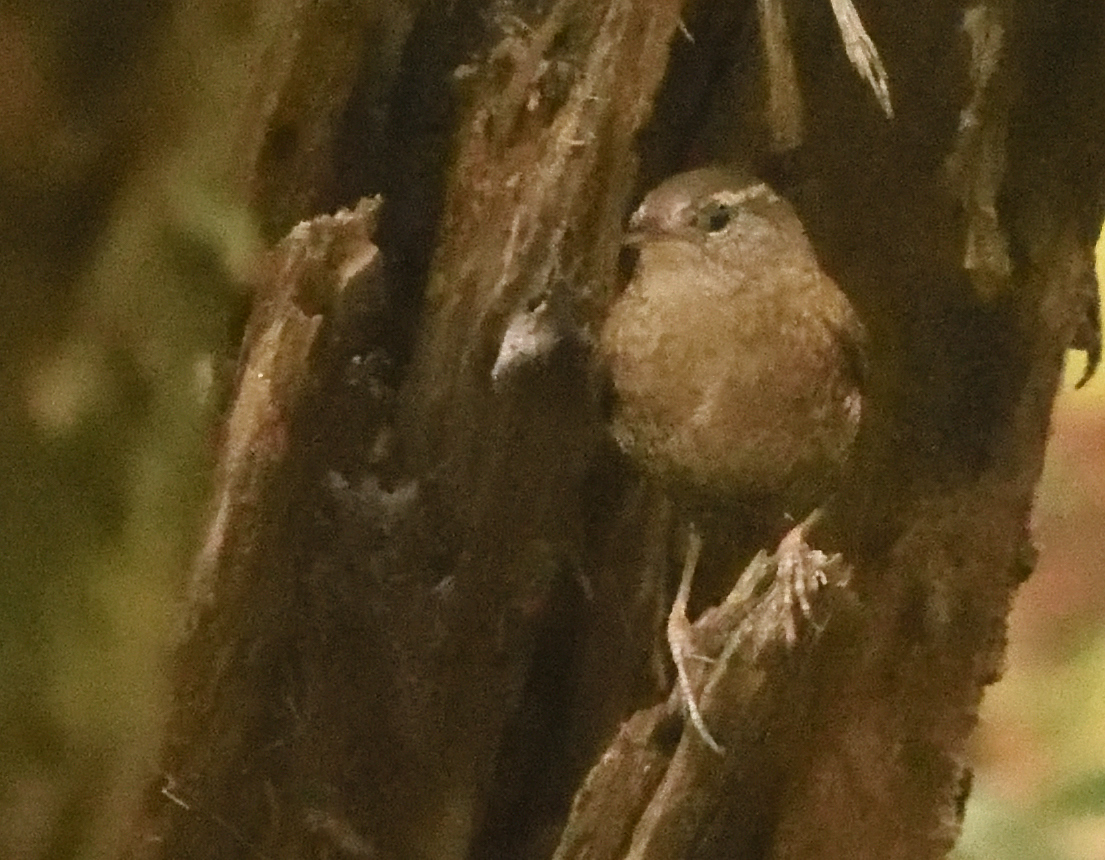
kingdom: Animalia
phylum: Chordata
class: Aves
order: Passeriformes
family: Troglodytidae
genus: Troglodytes
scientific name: Troglodytes hiemalis
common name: Winter wren
